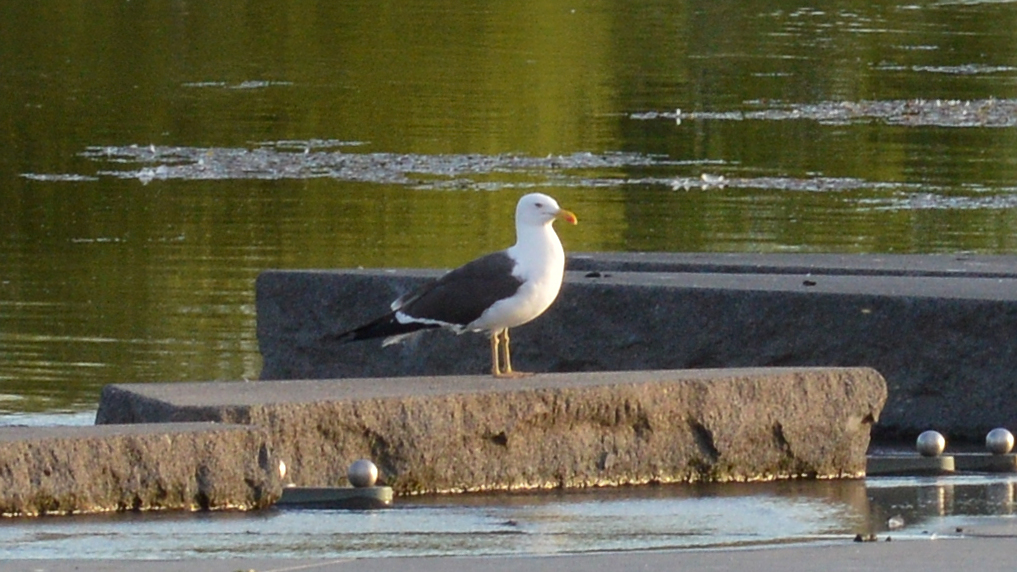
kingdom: Animalia
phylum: Chordata
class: Aves
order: Charadriiformes
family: Laridae
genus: Larus
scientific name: Larus fuscus
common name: Lesser black-backed gull
